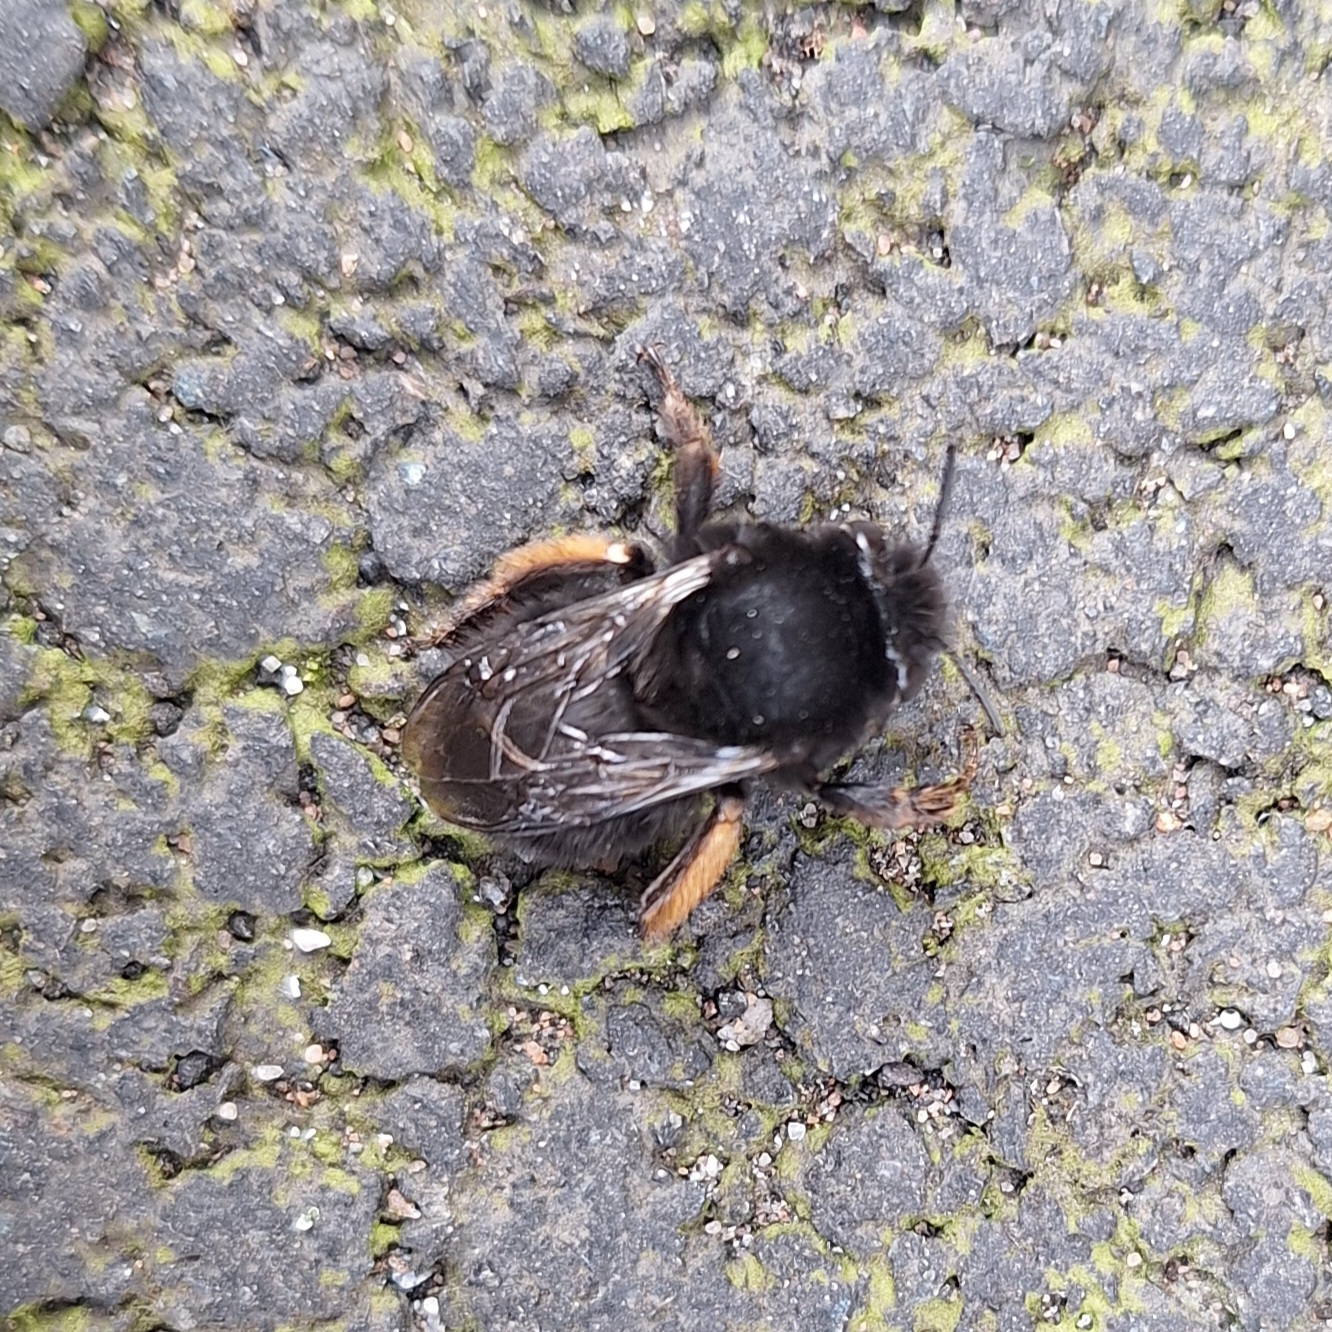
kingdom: Animalia
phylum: Arthropoda
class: Insecta
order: Hymenoptera
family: Apidae
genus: Anthophora
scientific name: Anthophora plumipes
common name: Hairy-footed flower bee
